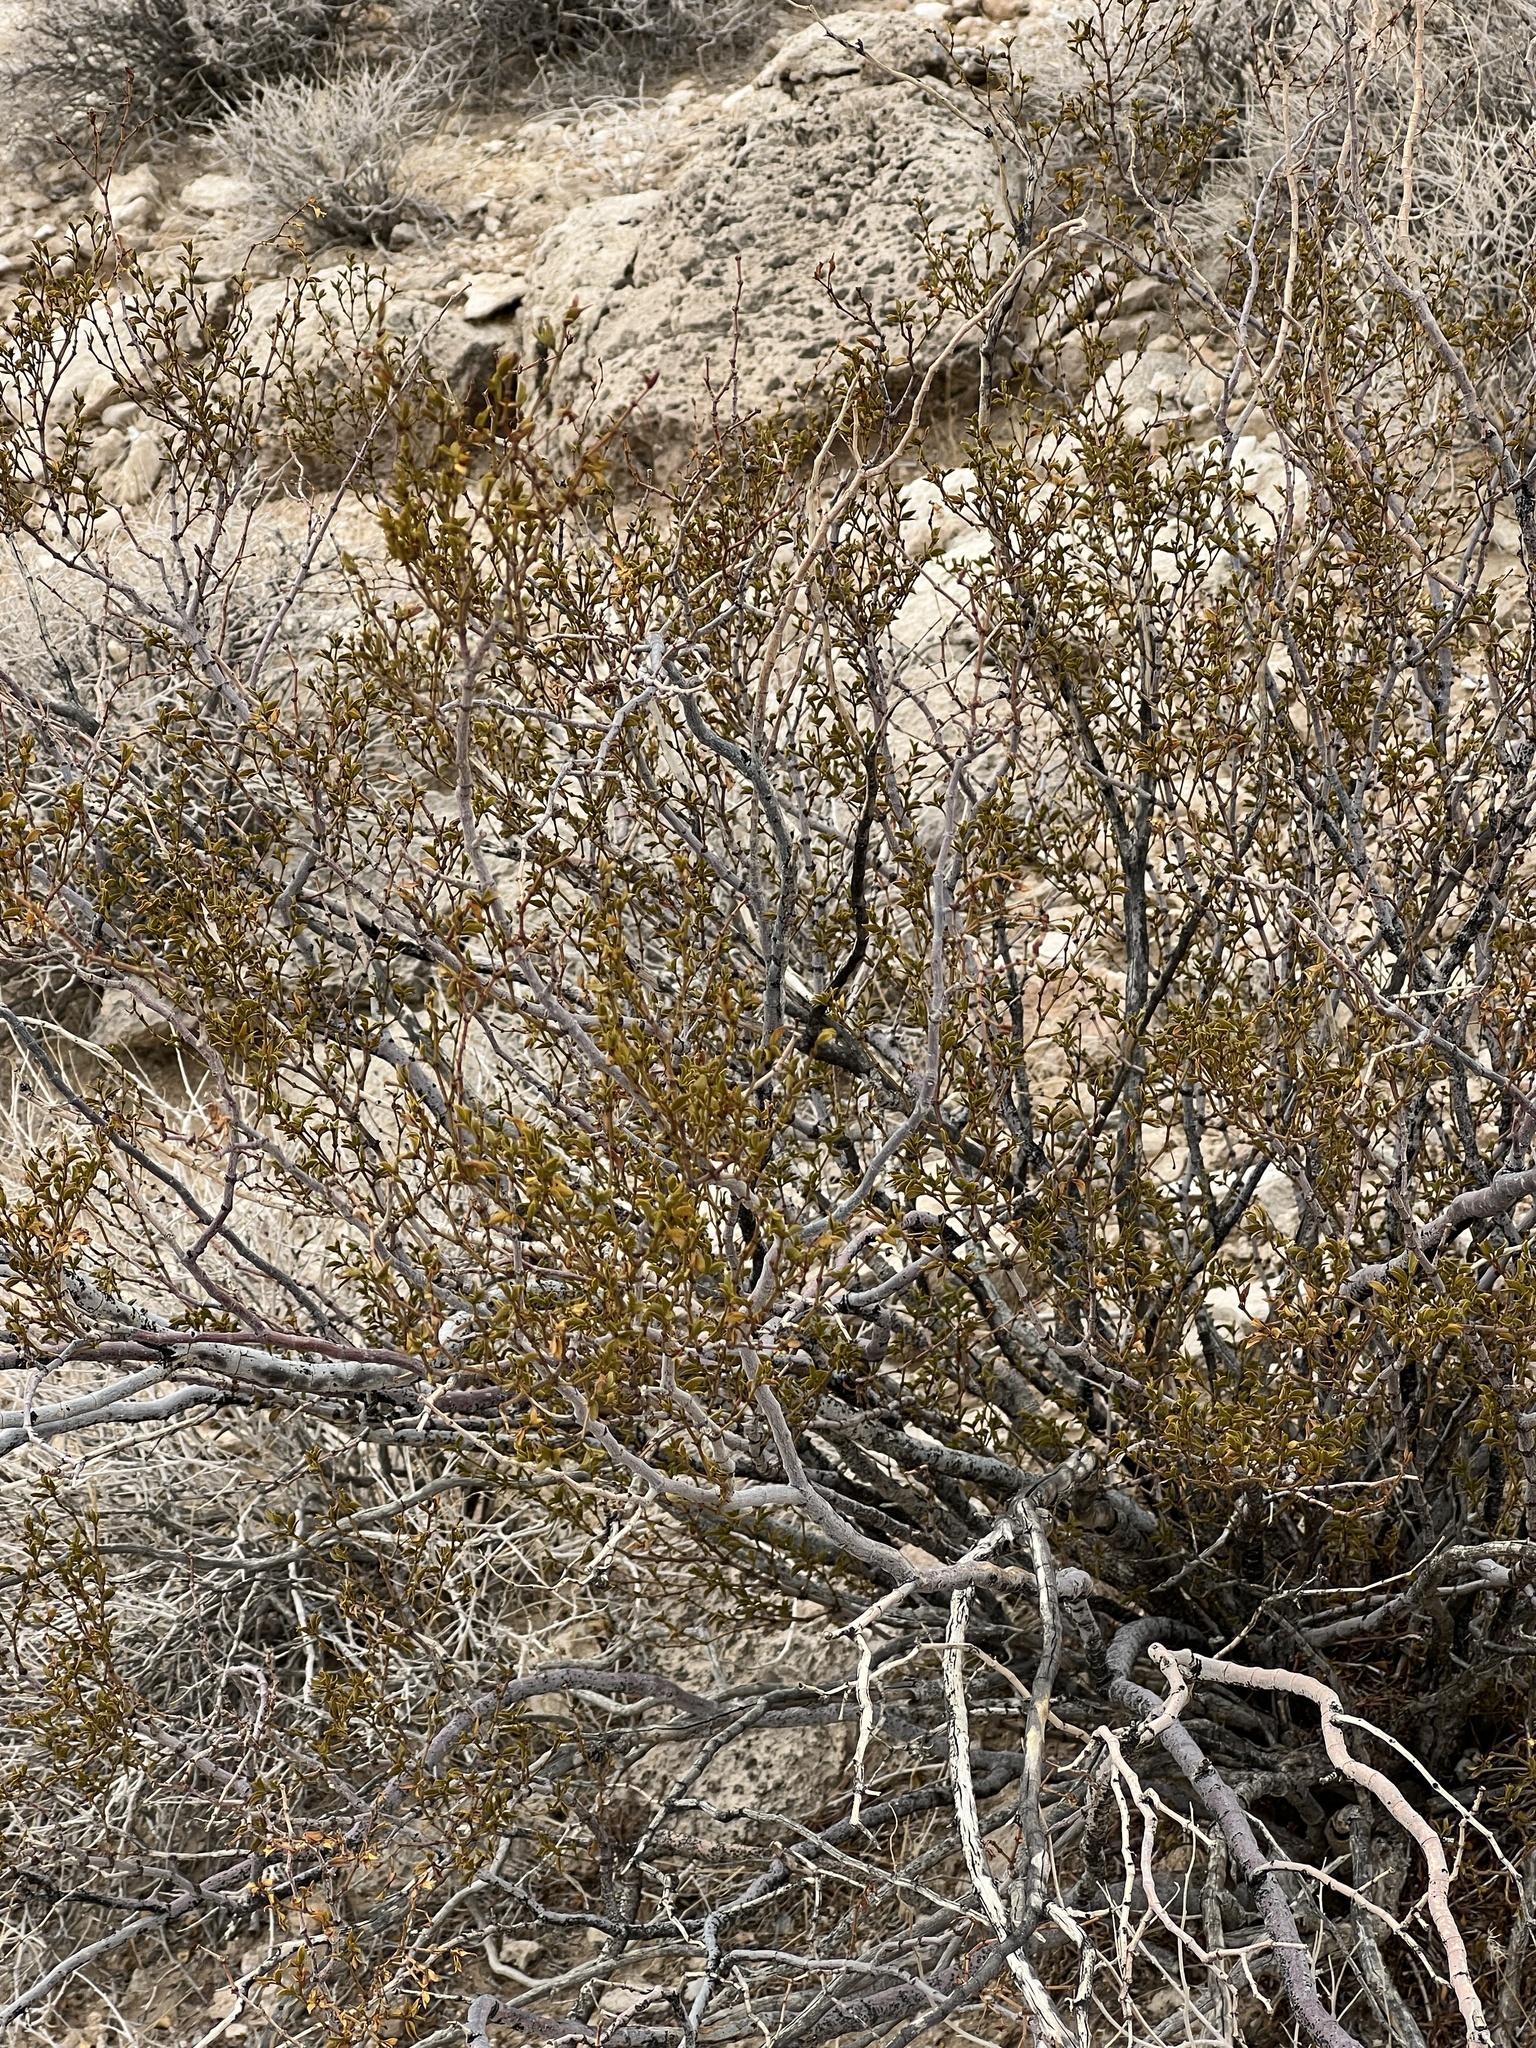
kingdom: Plantae
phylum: Tracheophyta
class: Magnoliopsida
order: Zygophyllales
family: Zygophyllaceae
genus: Larrea
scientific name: Larrea tridentata
